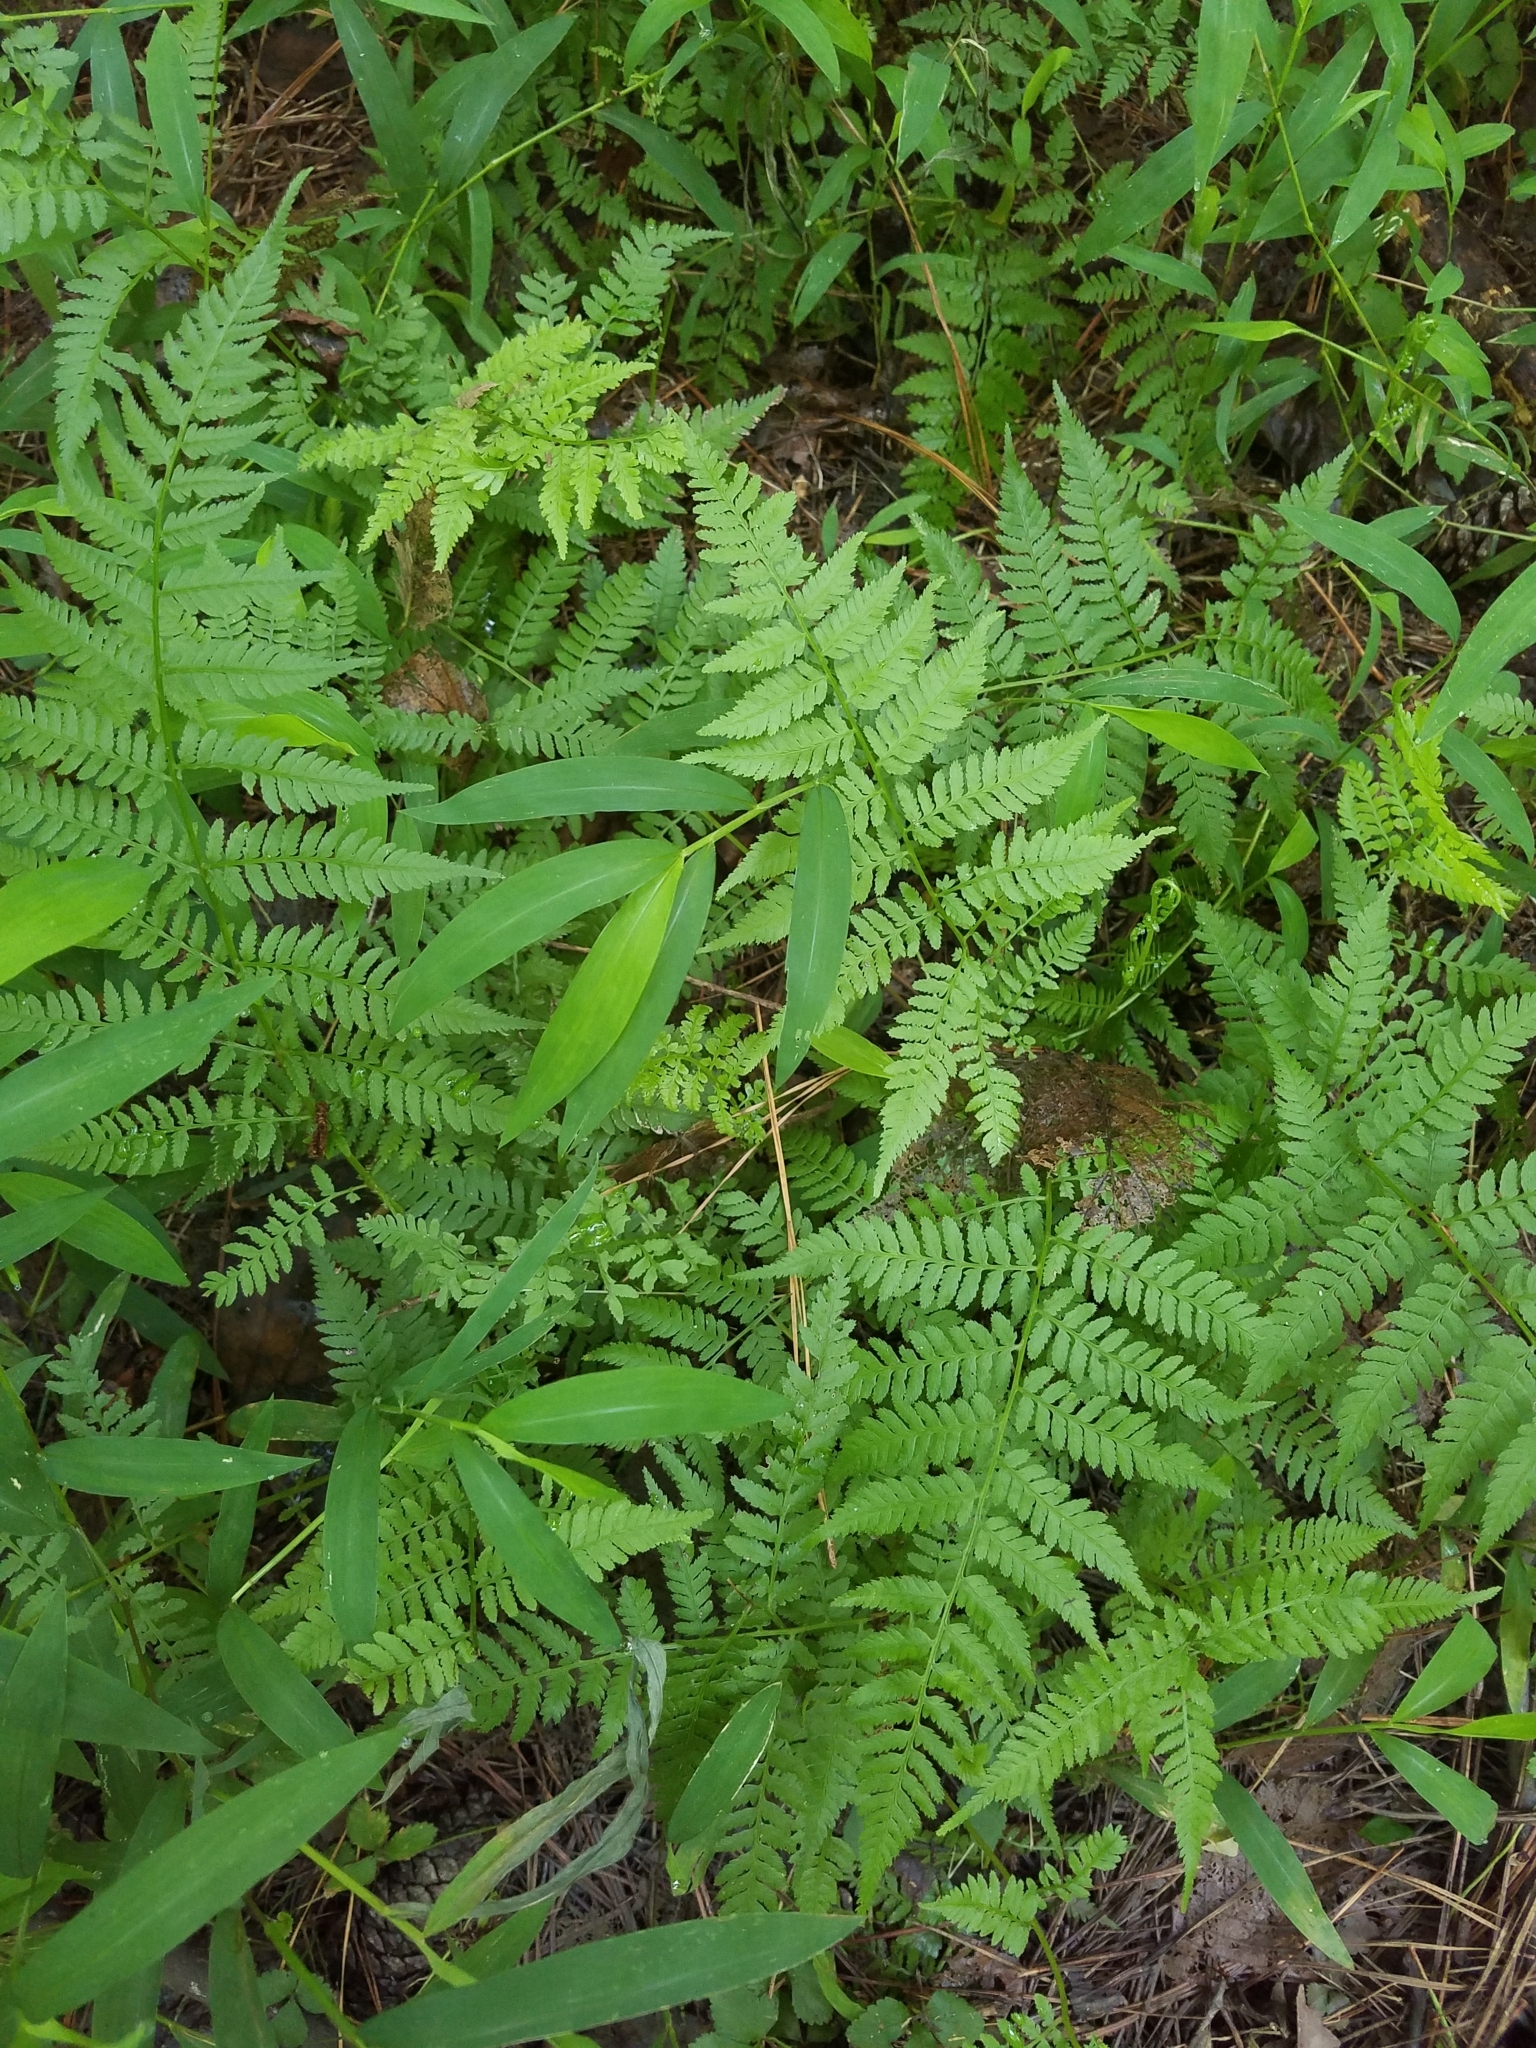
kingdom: Plantae
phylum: Tracheophyta
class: Polypodiopsida
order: Polypodiales
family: Athyriaceae
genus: Athyrium
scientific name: Athyrium asplenioides
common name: Southern lady fern
